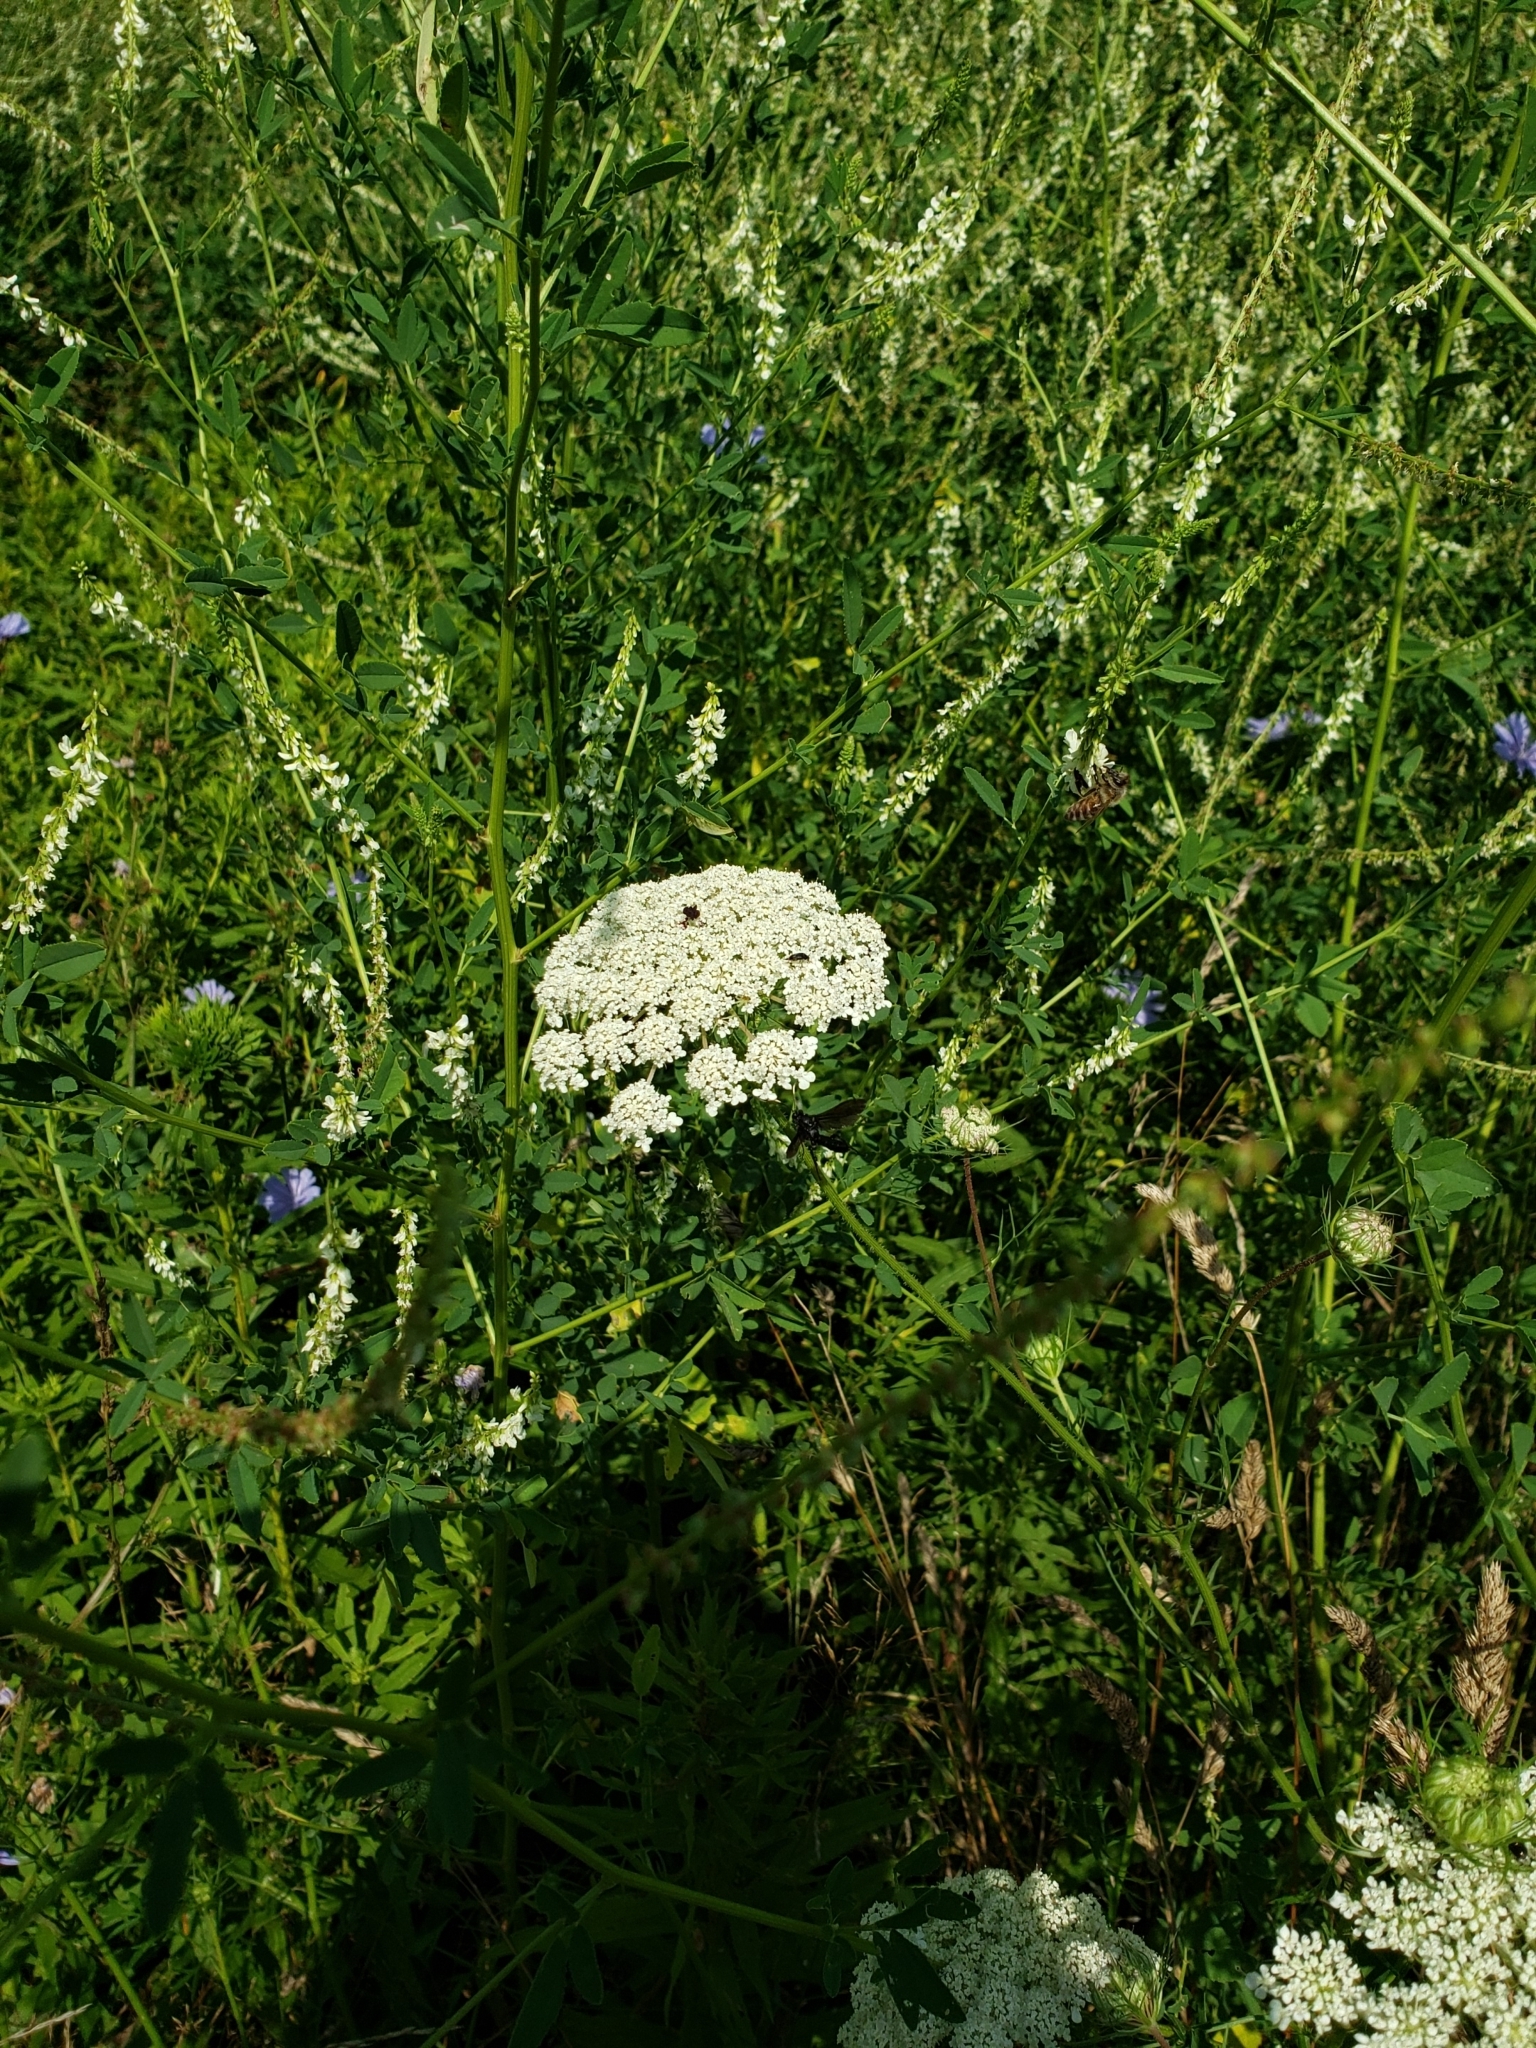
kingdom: Plantae
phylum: Tracheophyta
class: Magnoliopsida
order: Apiales
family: Apiaceae
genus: Daucus
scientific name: Daucus carota
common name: Wild carrot
